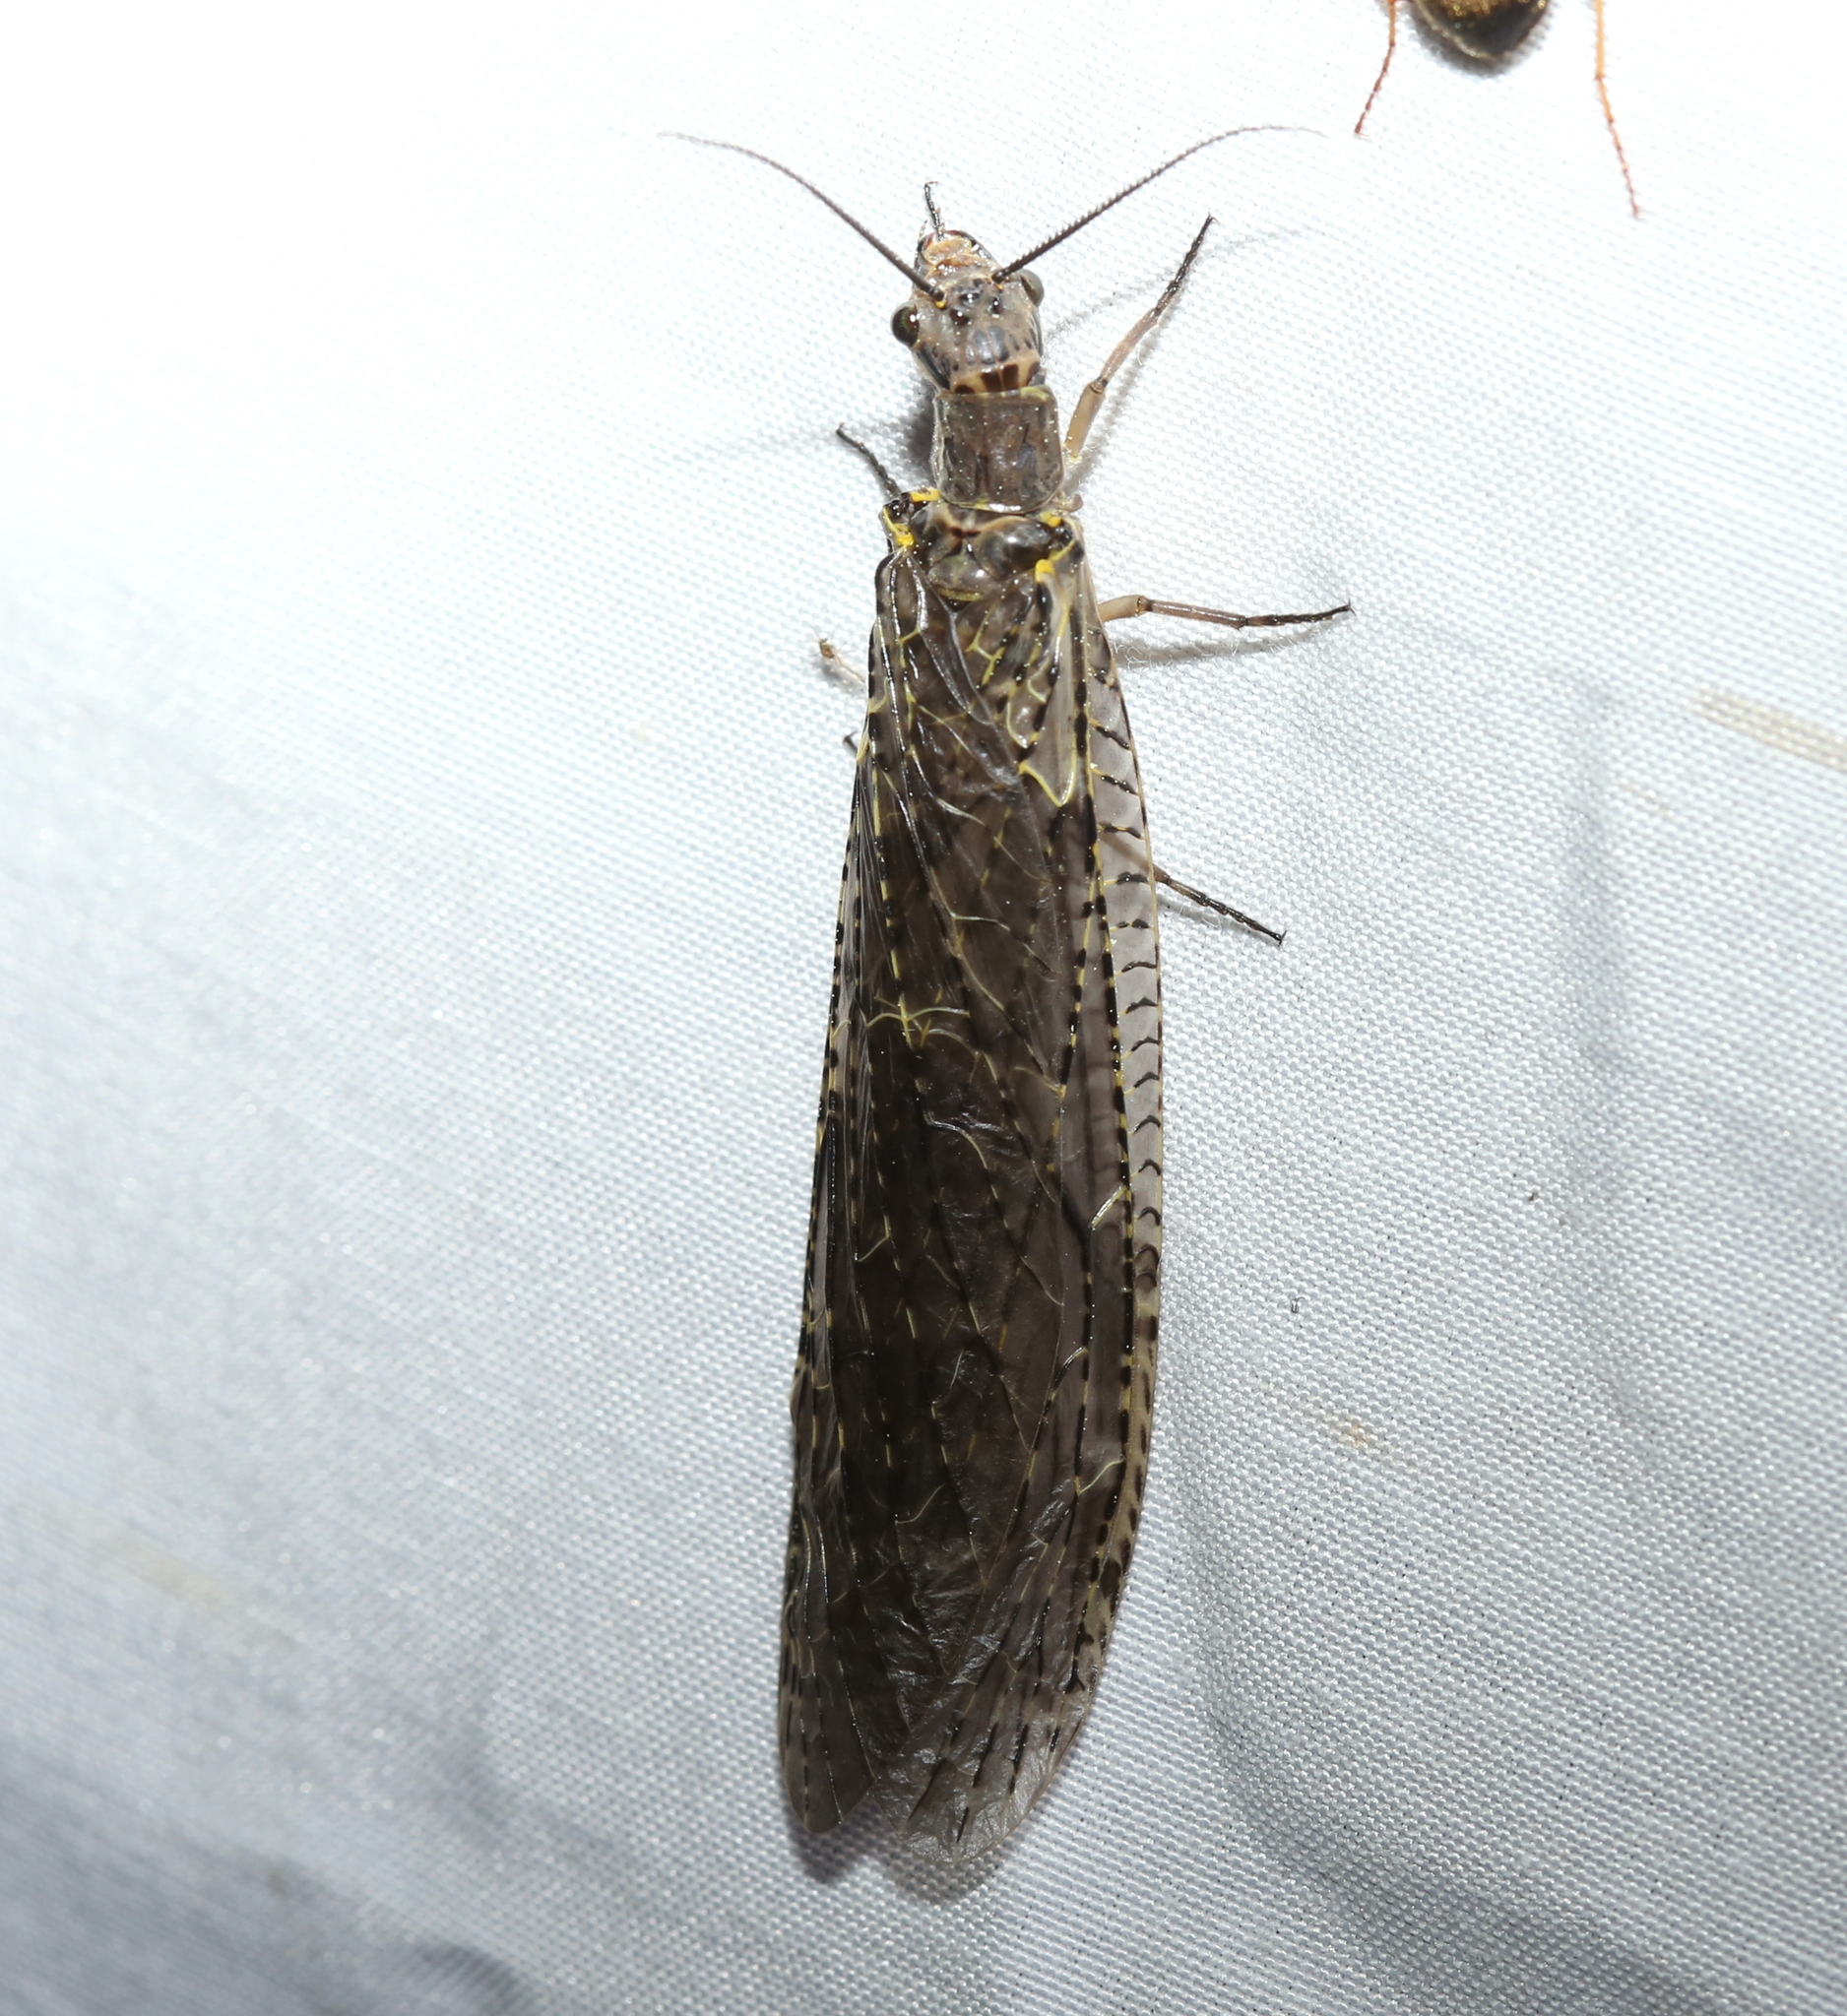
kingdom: Animalia
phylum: Arthropoda
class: Insecta
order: Megaloptera
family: Corydalidae
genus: Chauliodes
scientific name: Chauliodes rastricornis
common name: Spring fishfly
